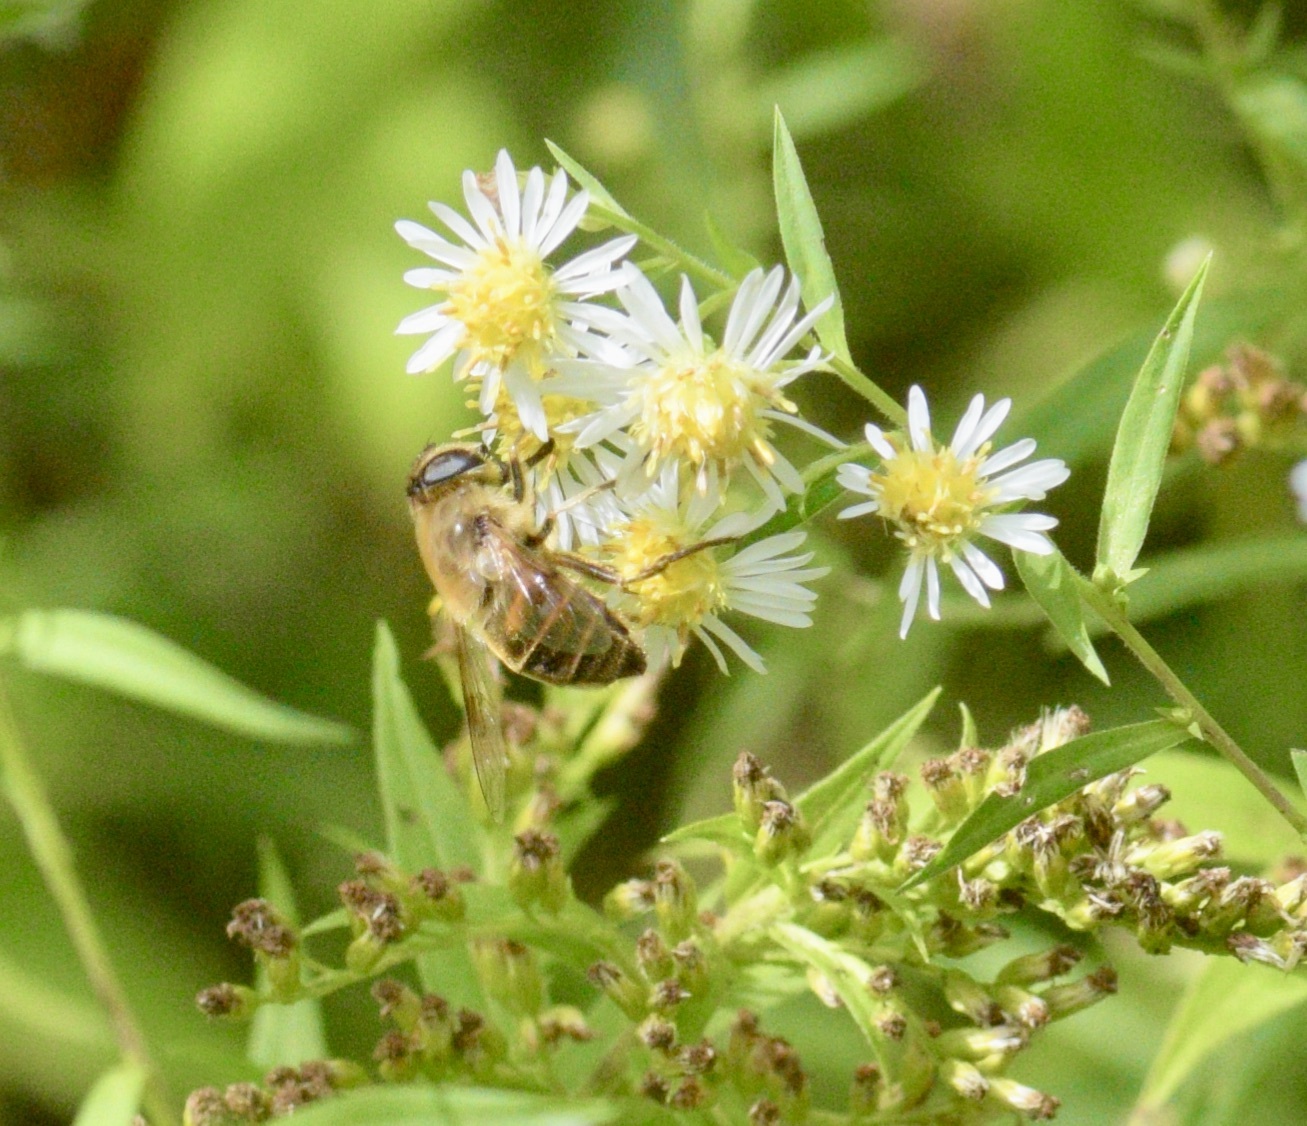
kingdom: Animalia
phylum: Arthropoda
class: Insecta
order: Diptera
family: Syrphidae
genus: Eristalis
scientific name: Eristalis tenax
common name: Drone fly
